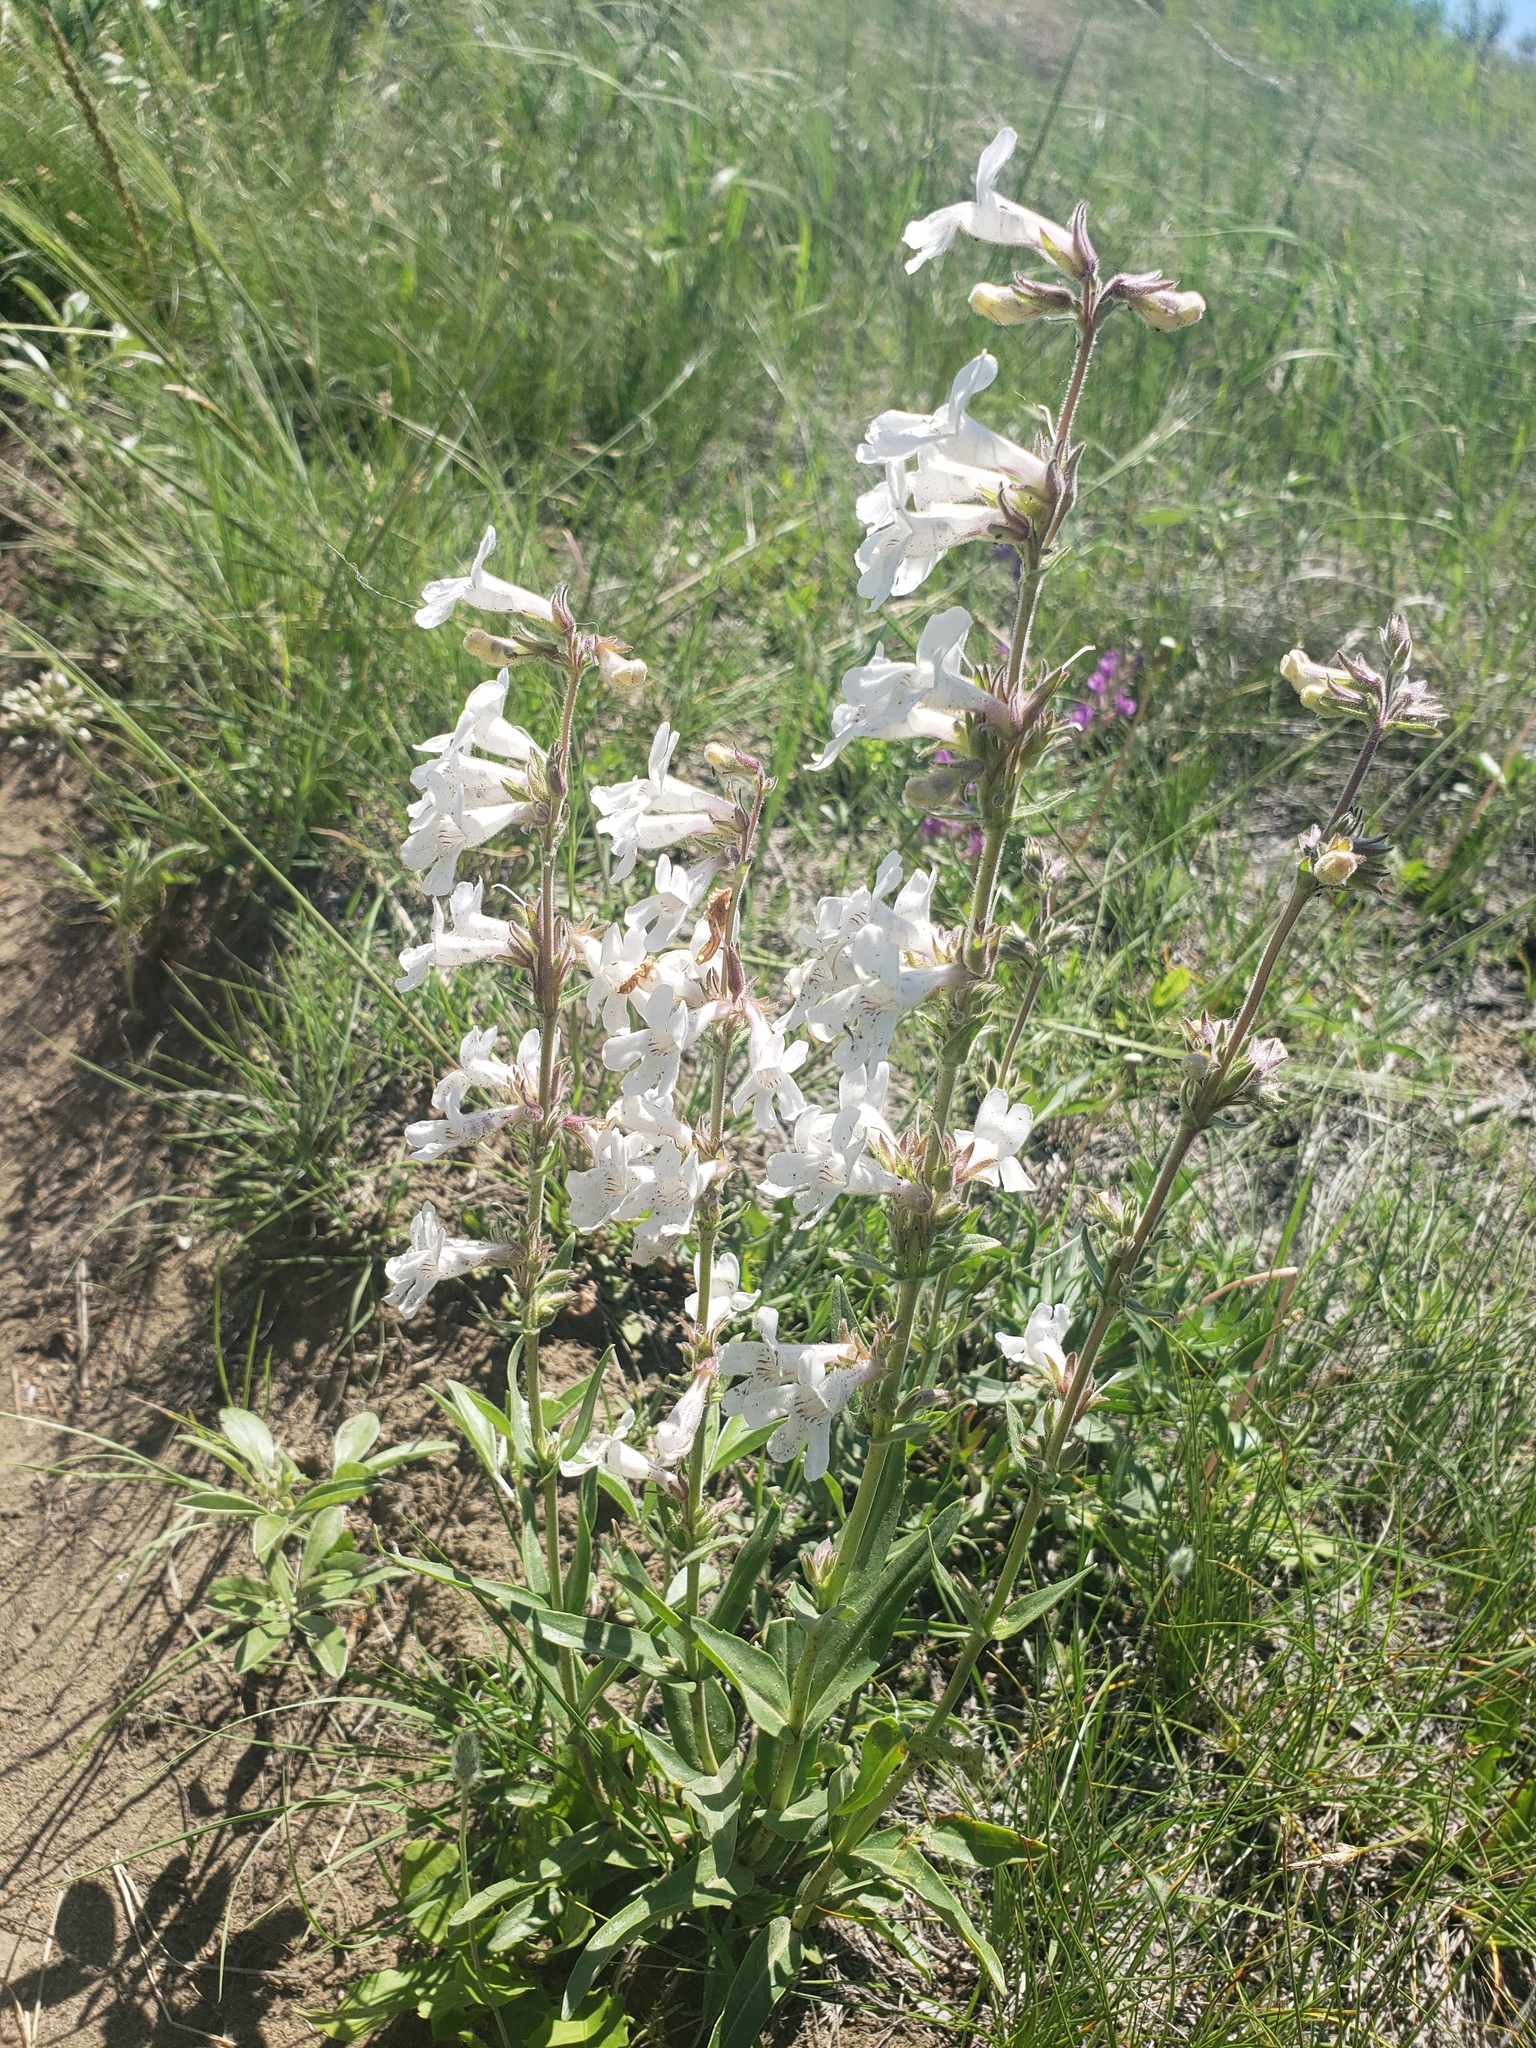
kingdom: Plantae
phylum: Tracheophyta
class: Magnoliopsida
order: Lamiales
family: Plantaginaceae
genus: Penstemon
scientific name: Penstemon albidus
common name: White beardtongue
